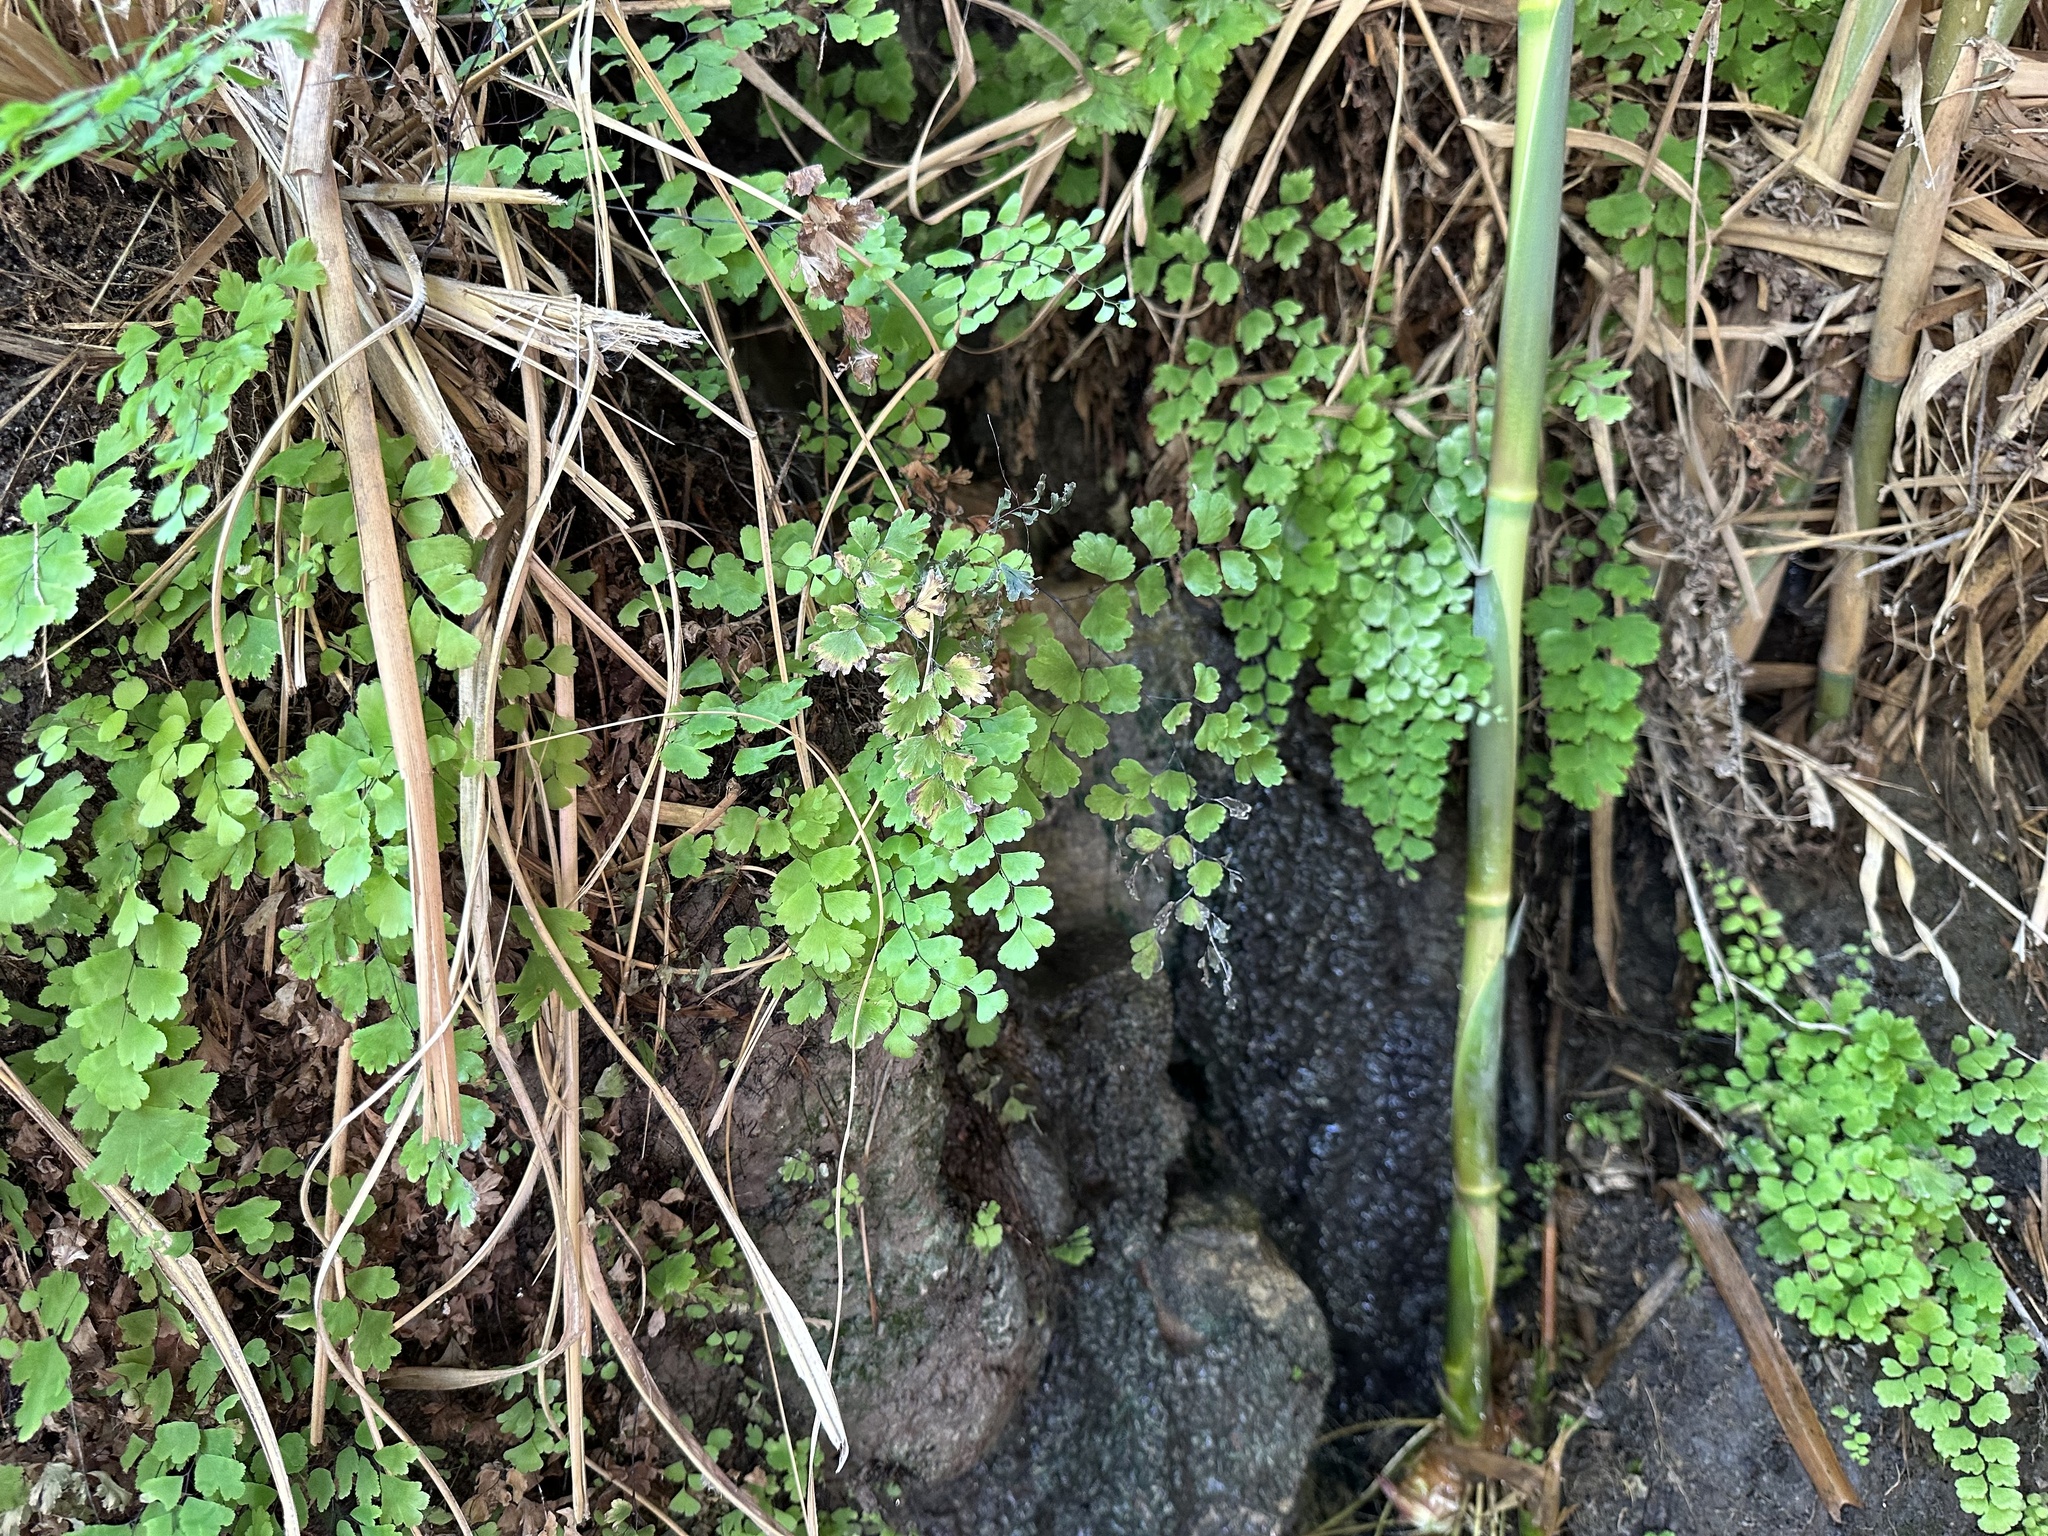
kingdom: Plantae
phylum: Tracheophyta
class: Polypodiopsida
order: Polypodiales
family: Pteridaceae
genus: Adiantum
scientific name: Adiantum capillus-veneris
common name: Maidenhair fern
